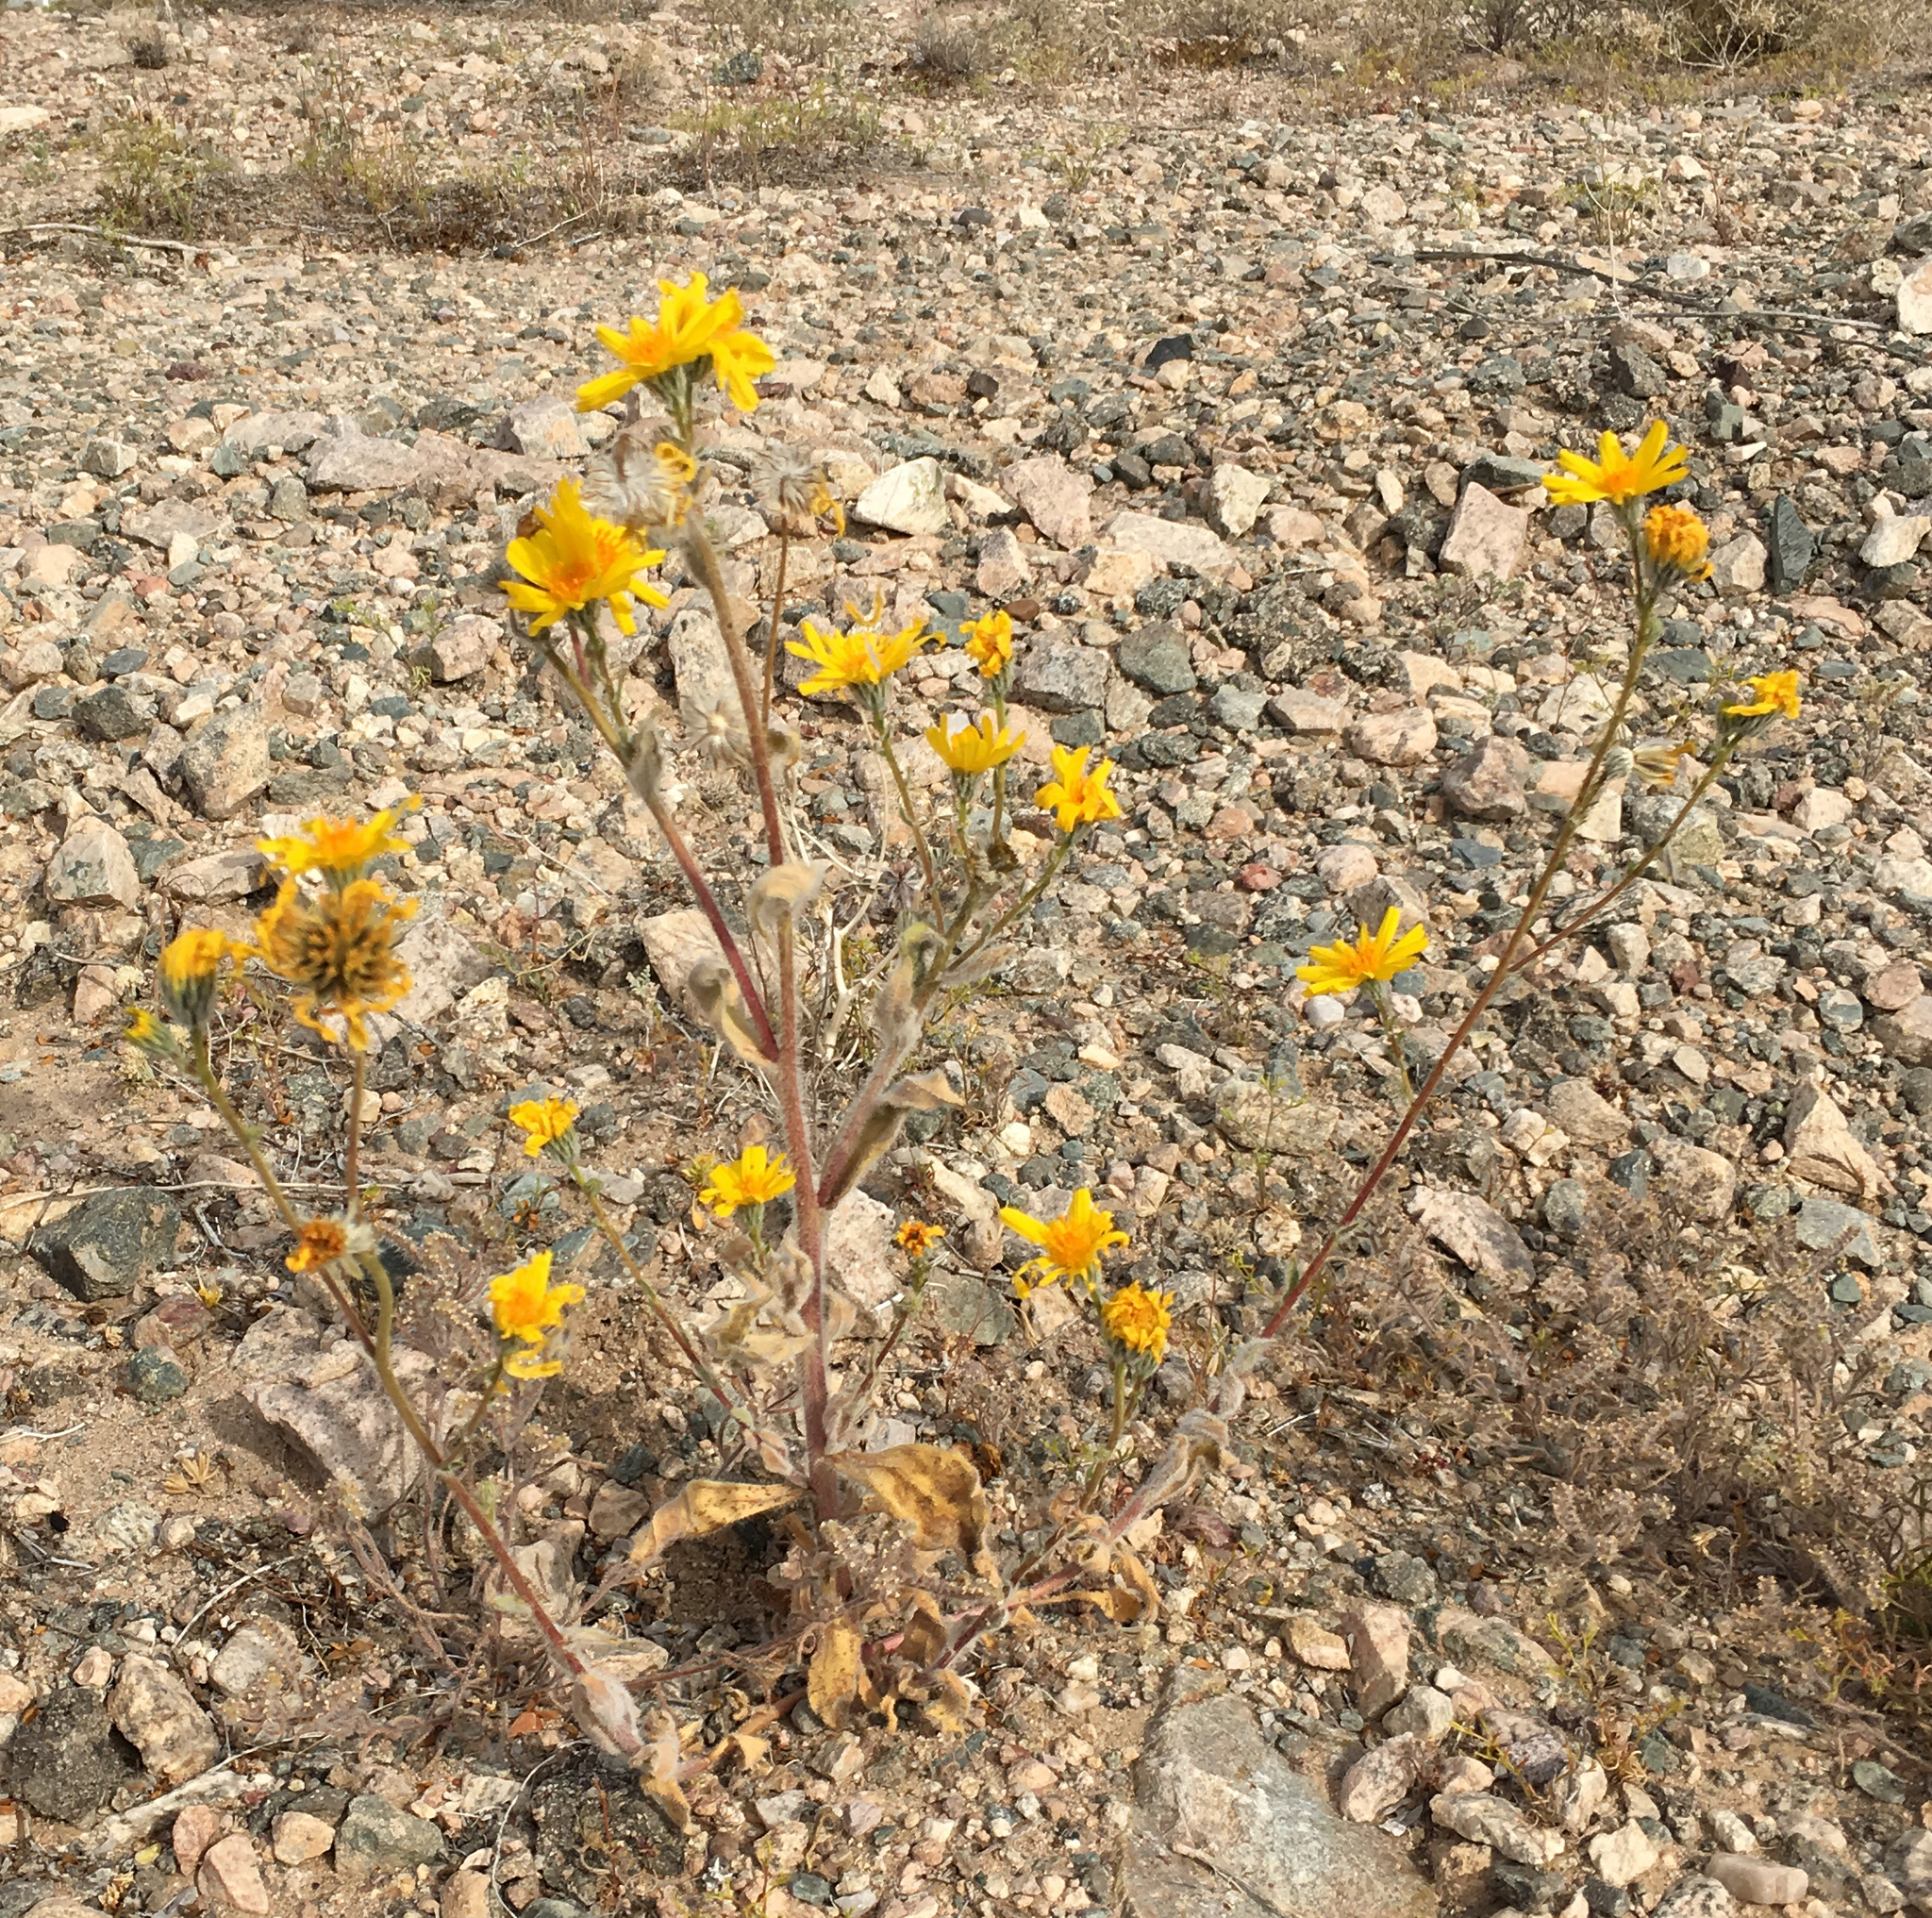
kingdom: Plantae
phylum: Tracheophyta
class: Magnoliopsida
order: Asterales
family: Asteraceae
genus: Geraea
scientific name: Geraea canescens
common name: Desert-gold
